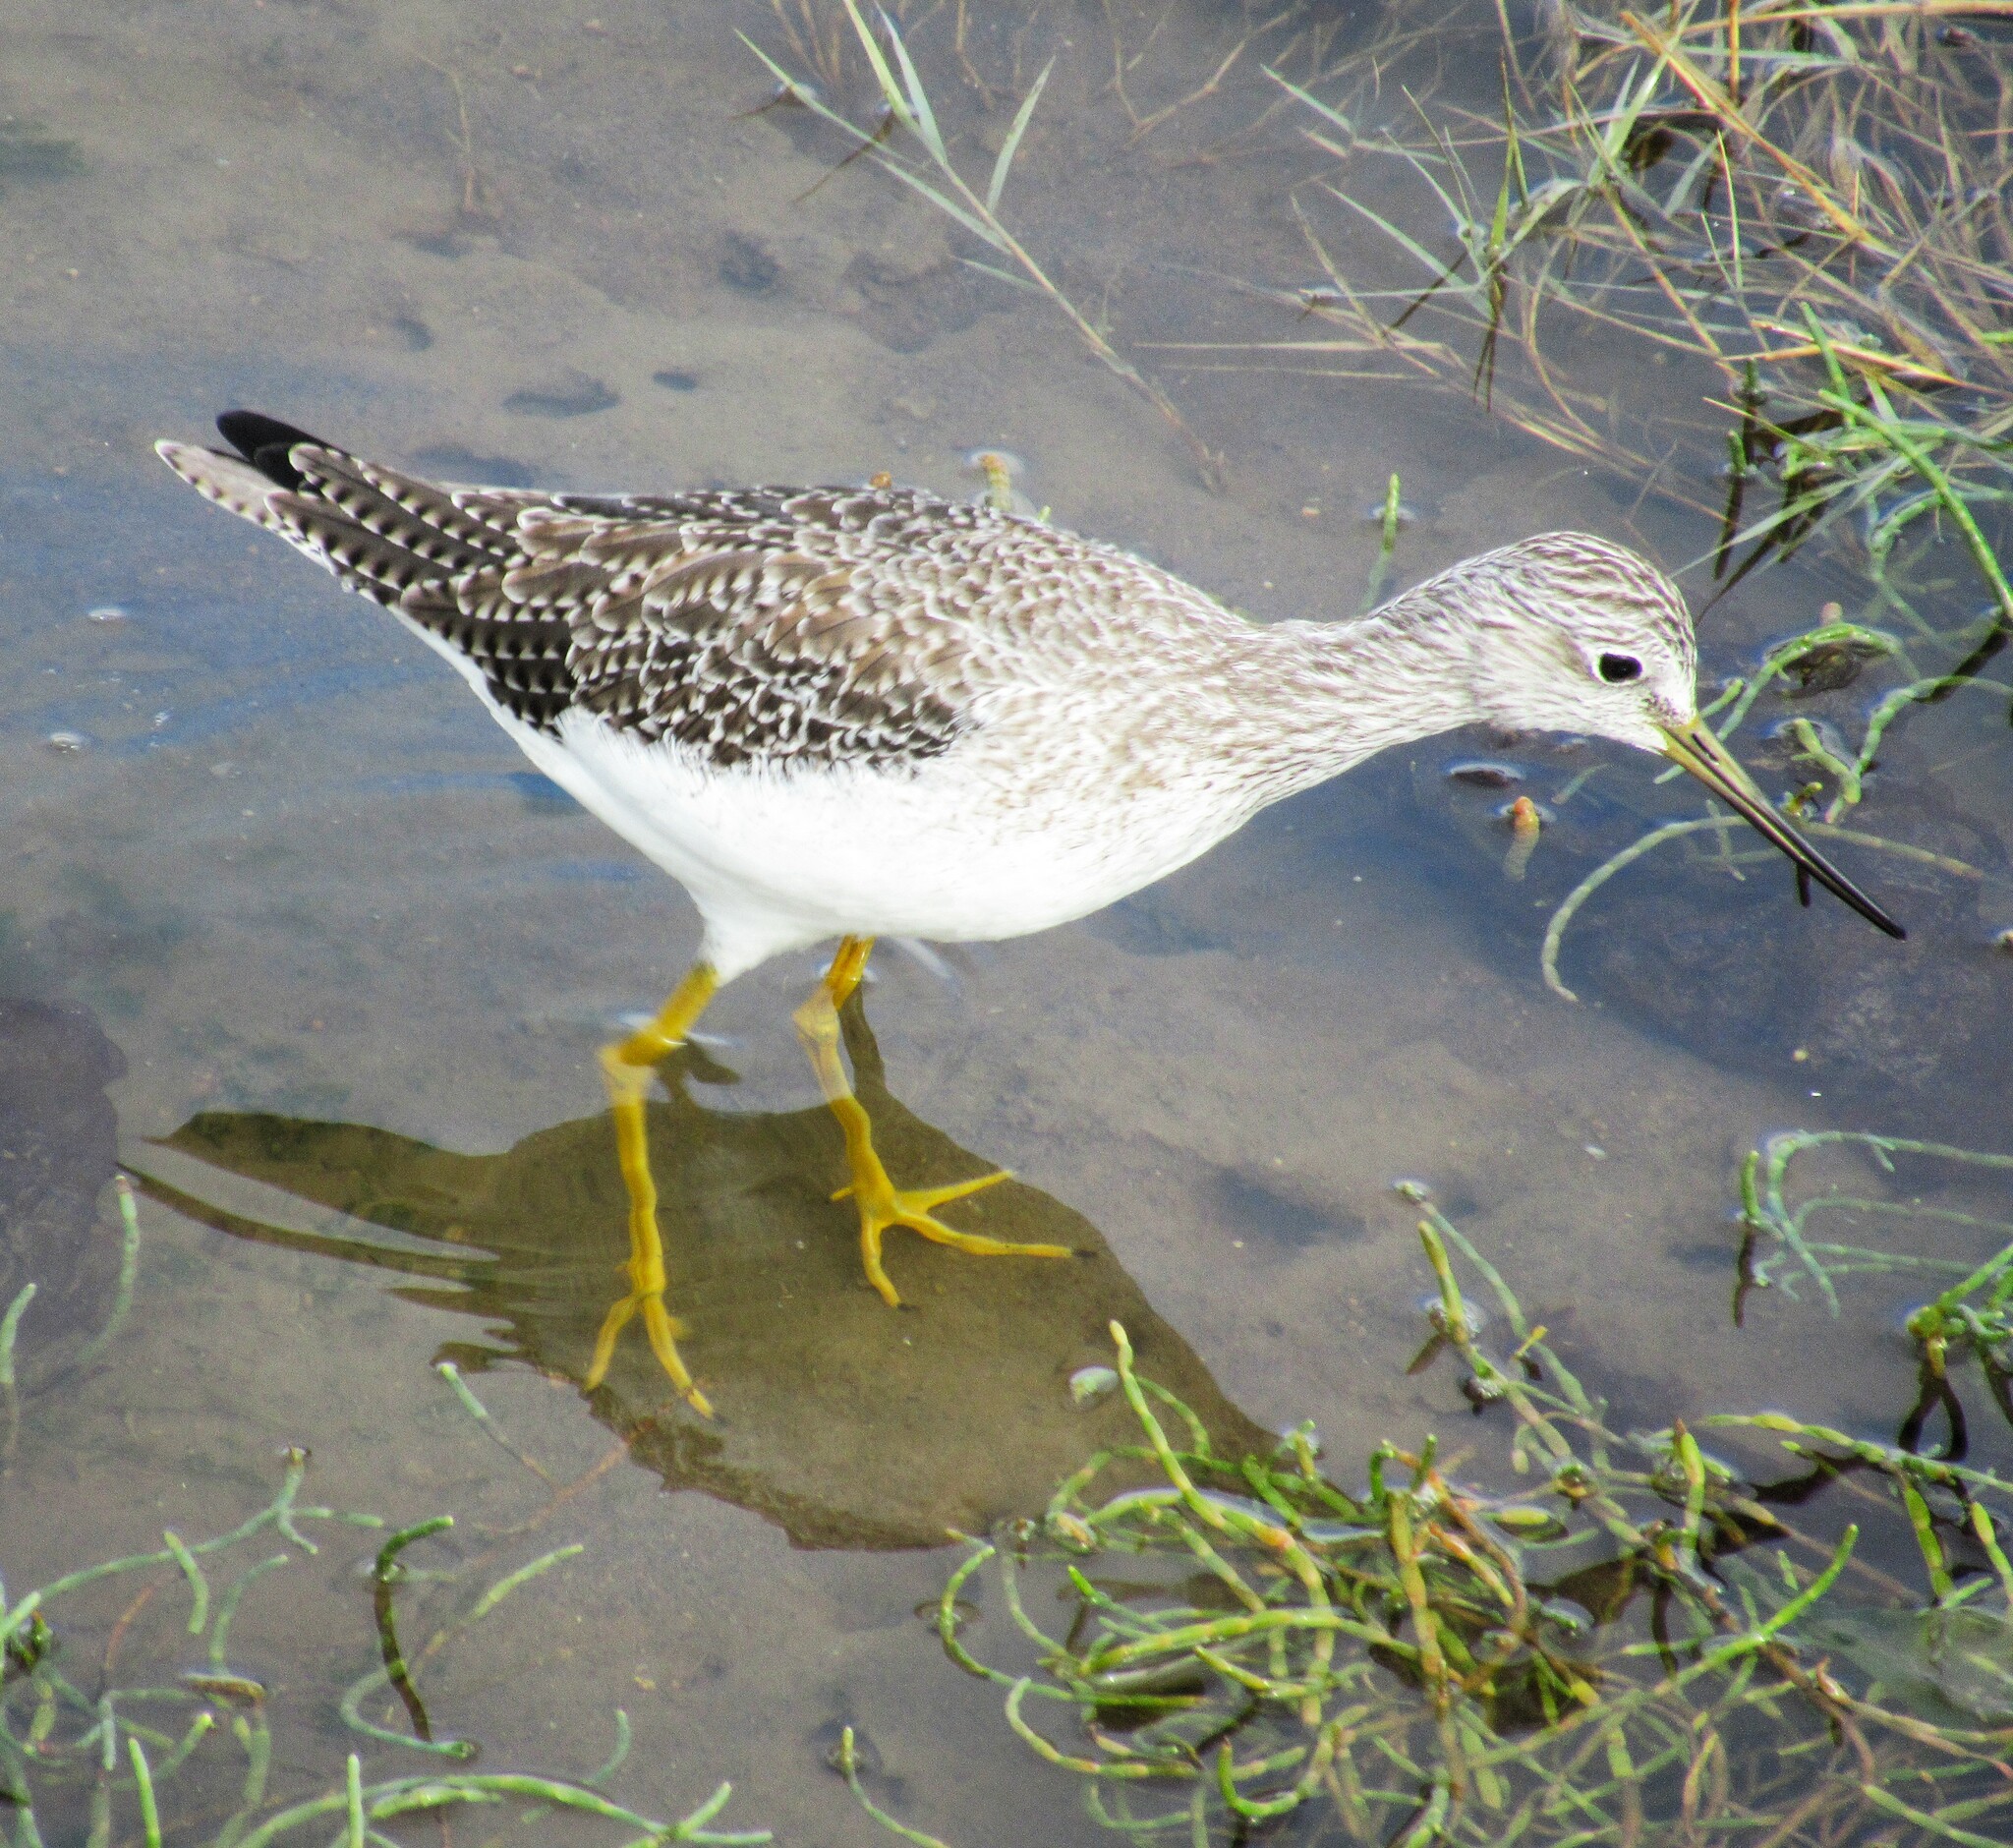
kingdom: Animalia
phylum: Chordata
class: Aves
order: Charadriiformes
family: Scolopacidae
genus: Tringa
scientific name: Tringa melanoleuca
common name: Greater yellowlegs
